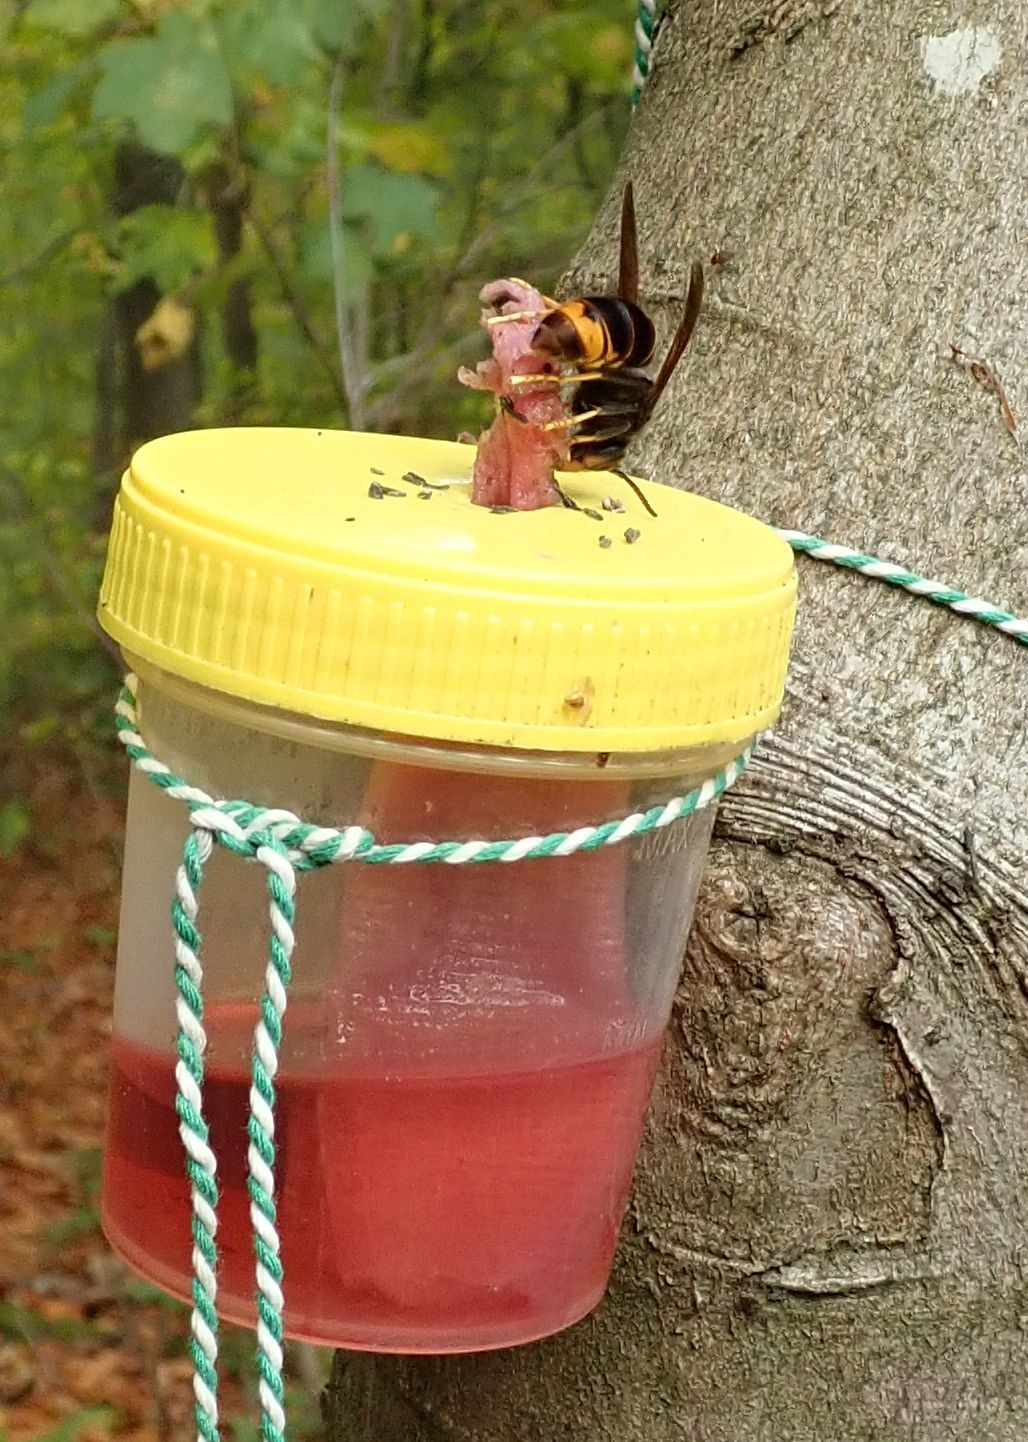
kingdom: Animalia
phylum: Arthropoda
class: Insecta
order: Hymenoptera
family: Vespidae
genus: Vespa
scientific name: Vespa velutina
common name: Asian hornet
